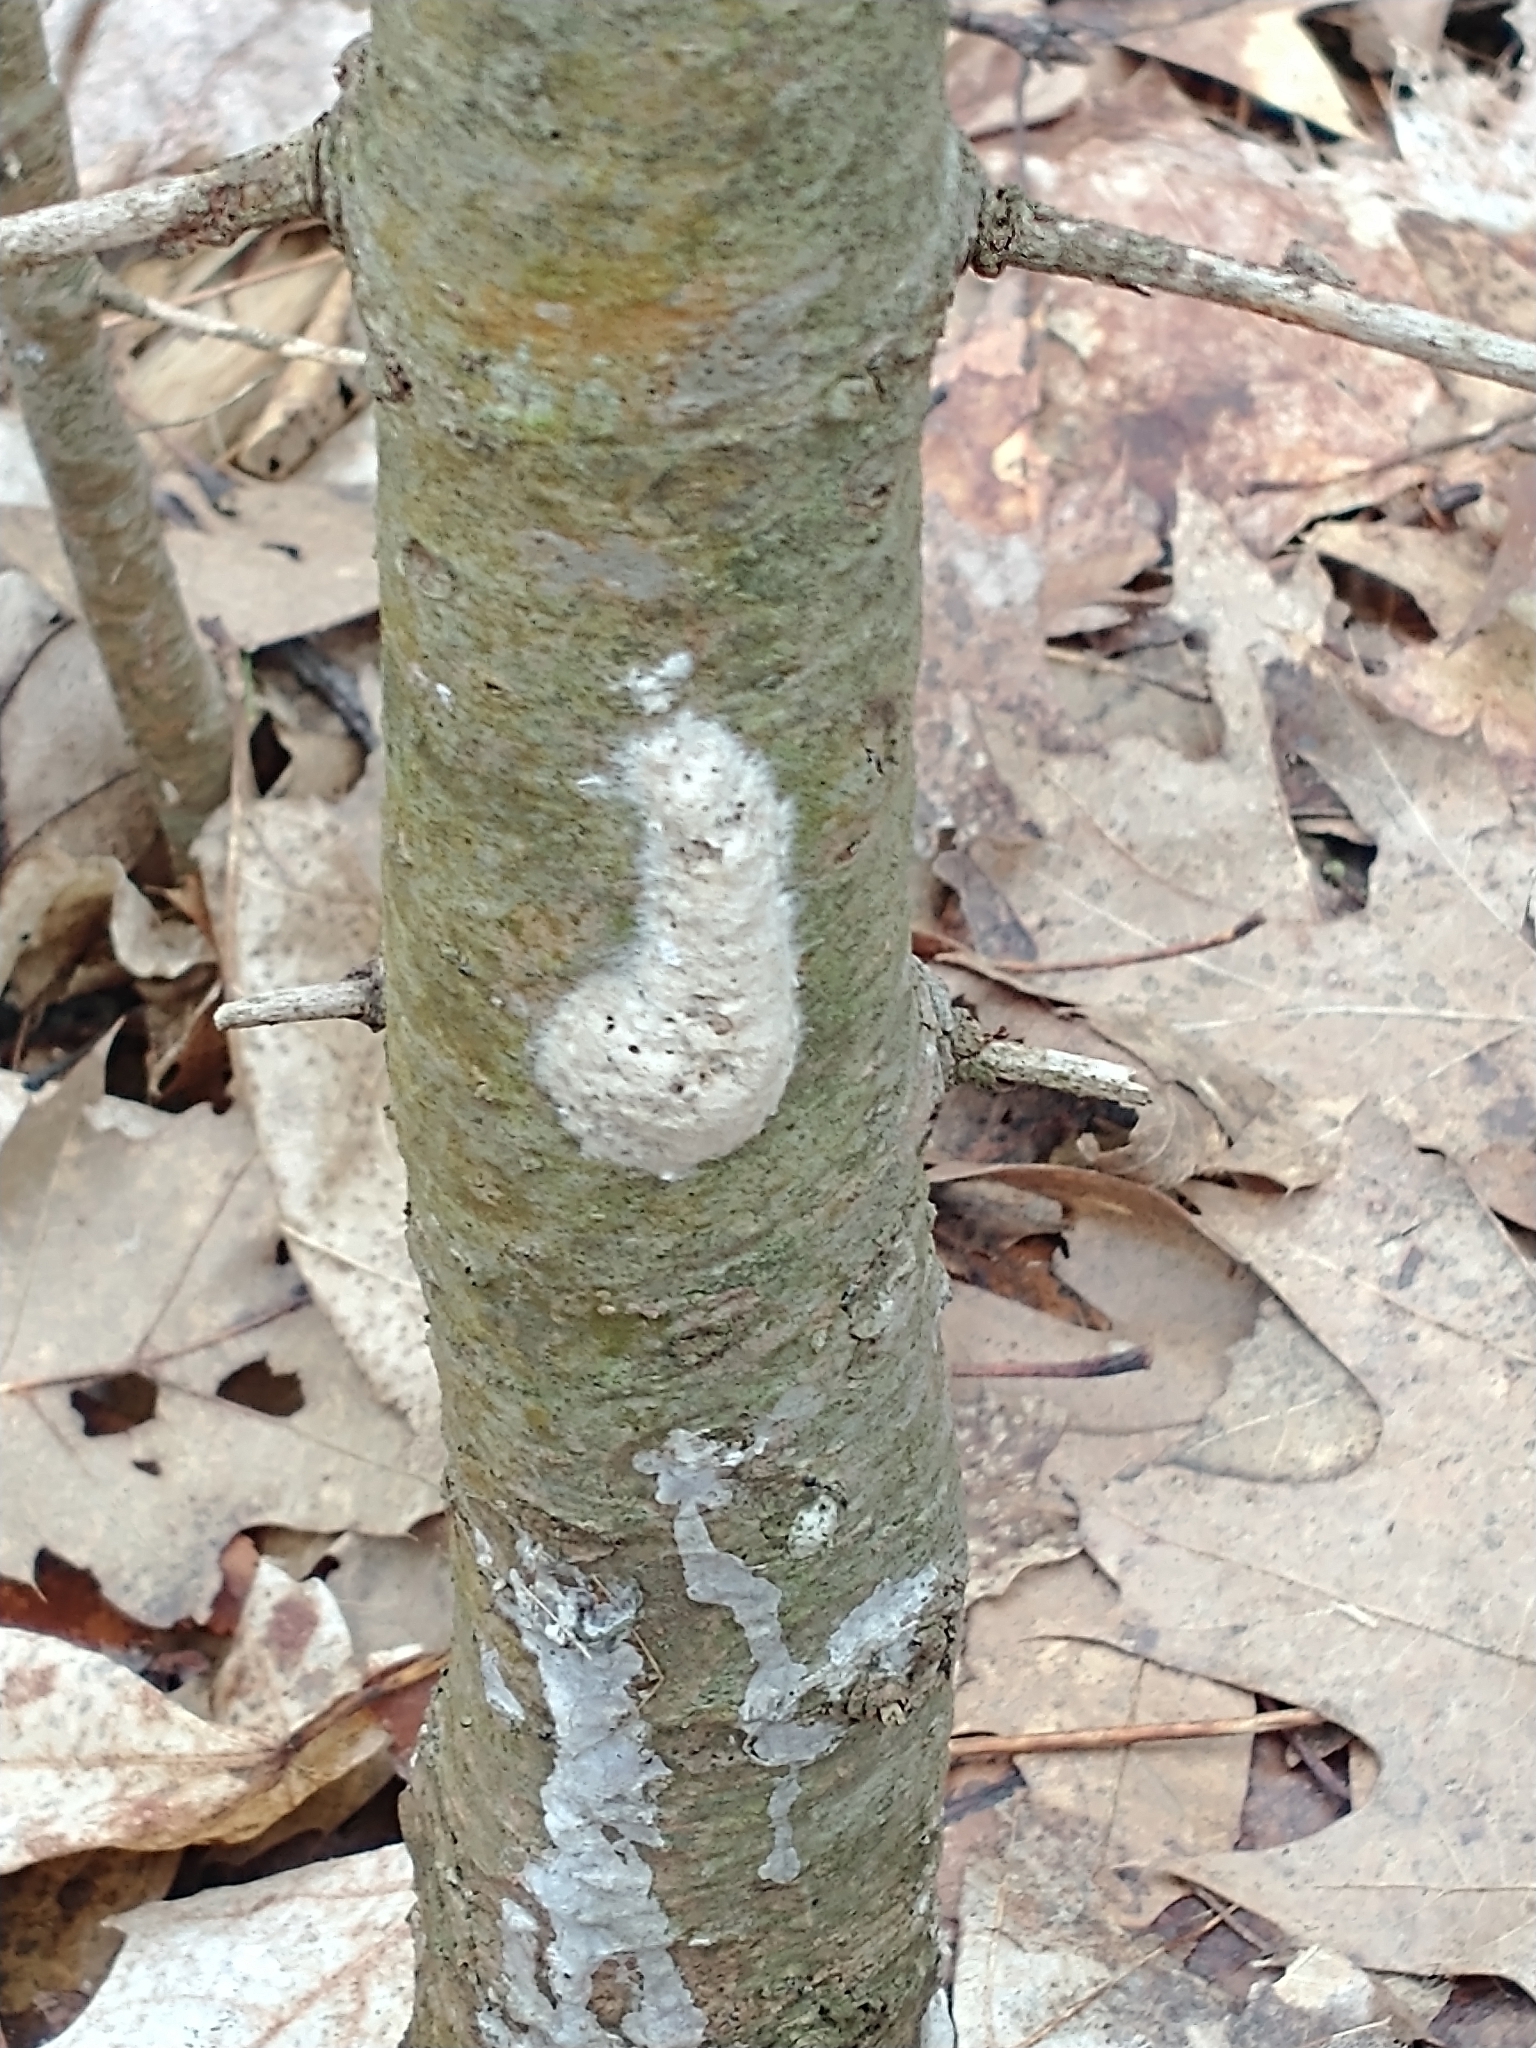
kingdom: Animalia
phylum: Arthropoda
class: Insecta
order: Lepidoptera
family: Erebidae
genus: Lymantria
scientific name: Lymantria dispar
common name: Gypsy moth
